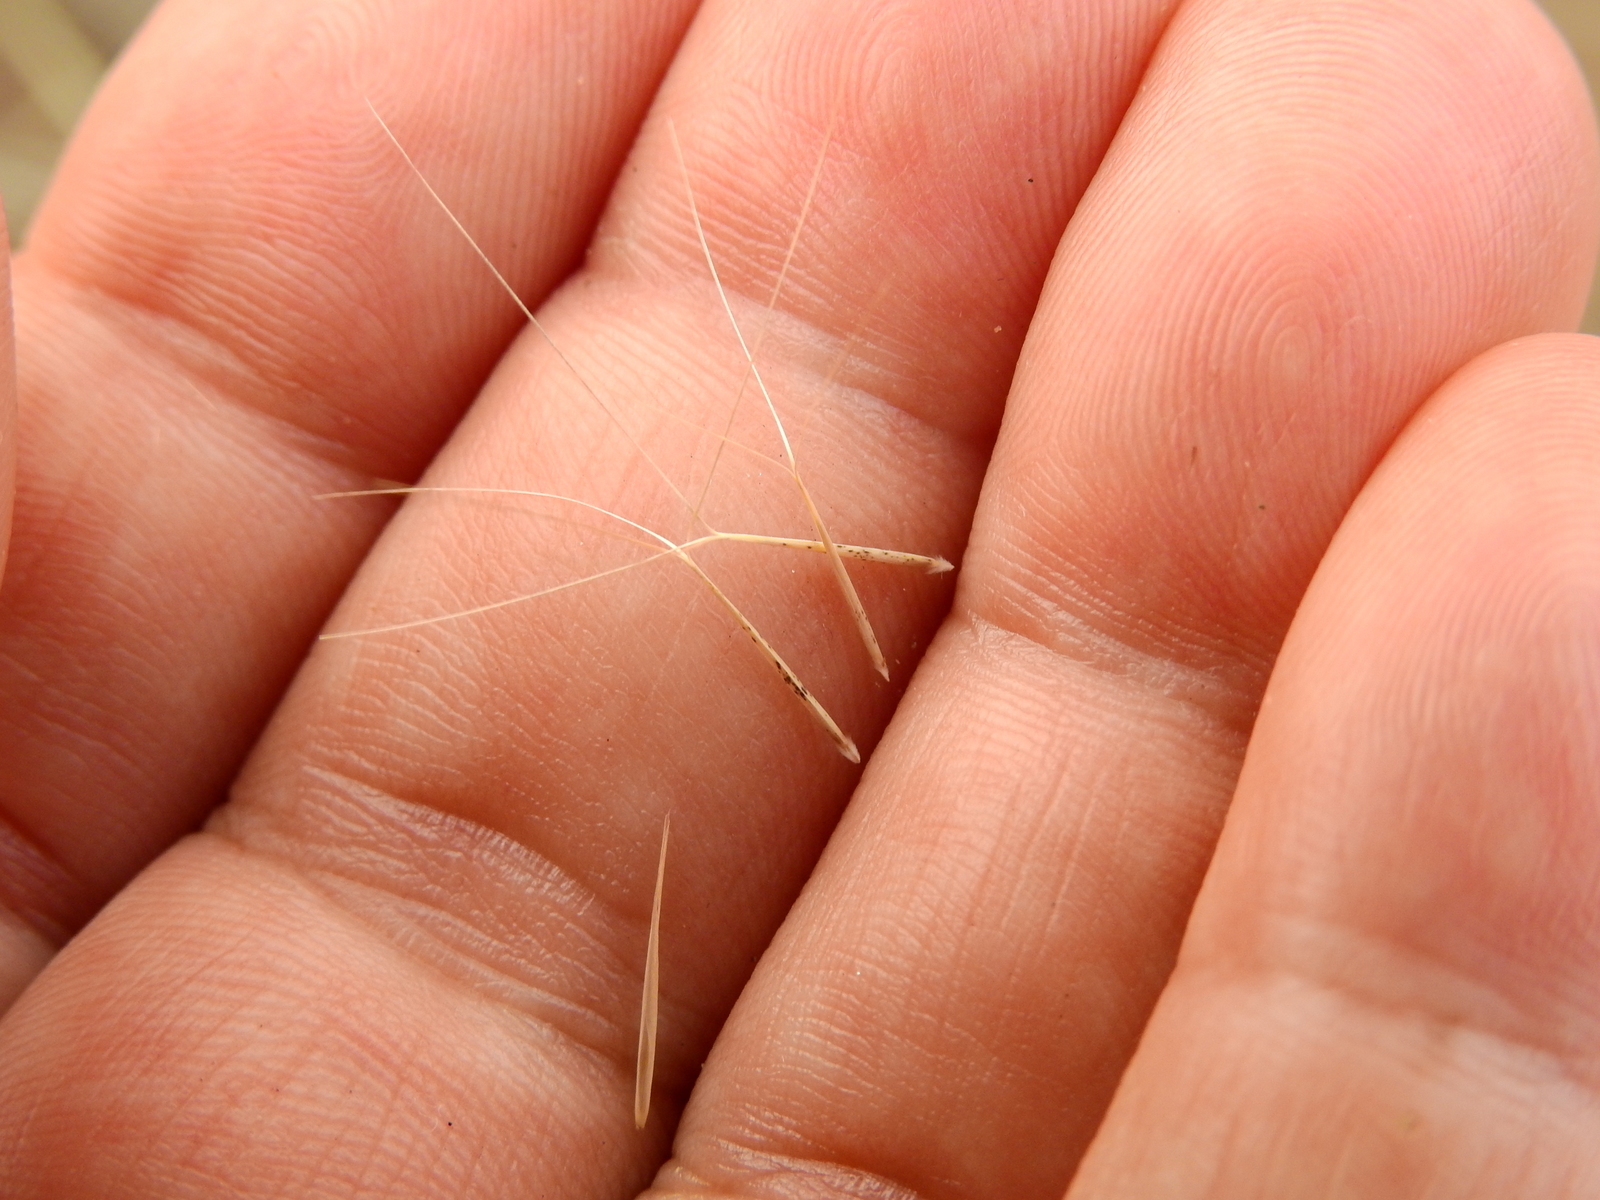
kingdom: Plantae
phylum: Tracheophyta
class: Liliopsida
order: Poales
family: Poaceae
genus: Aristida
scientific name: Aristida mendocina
